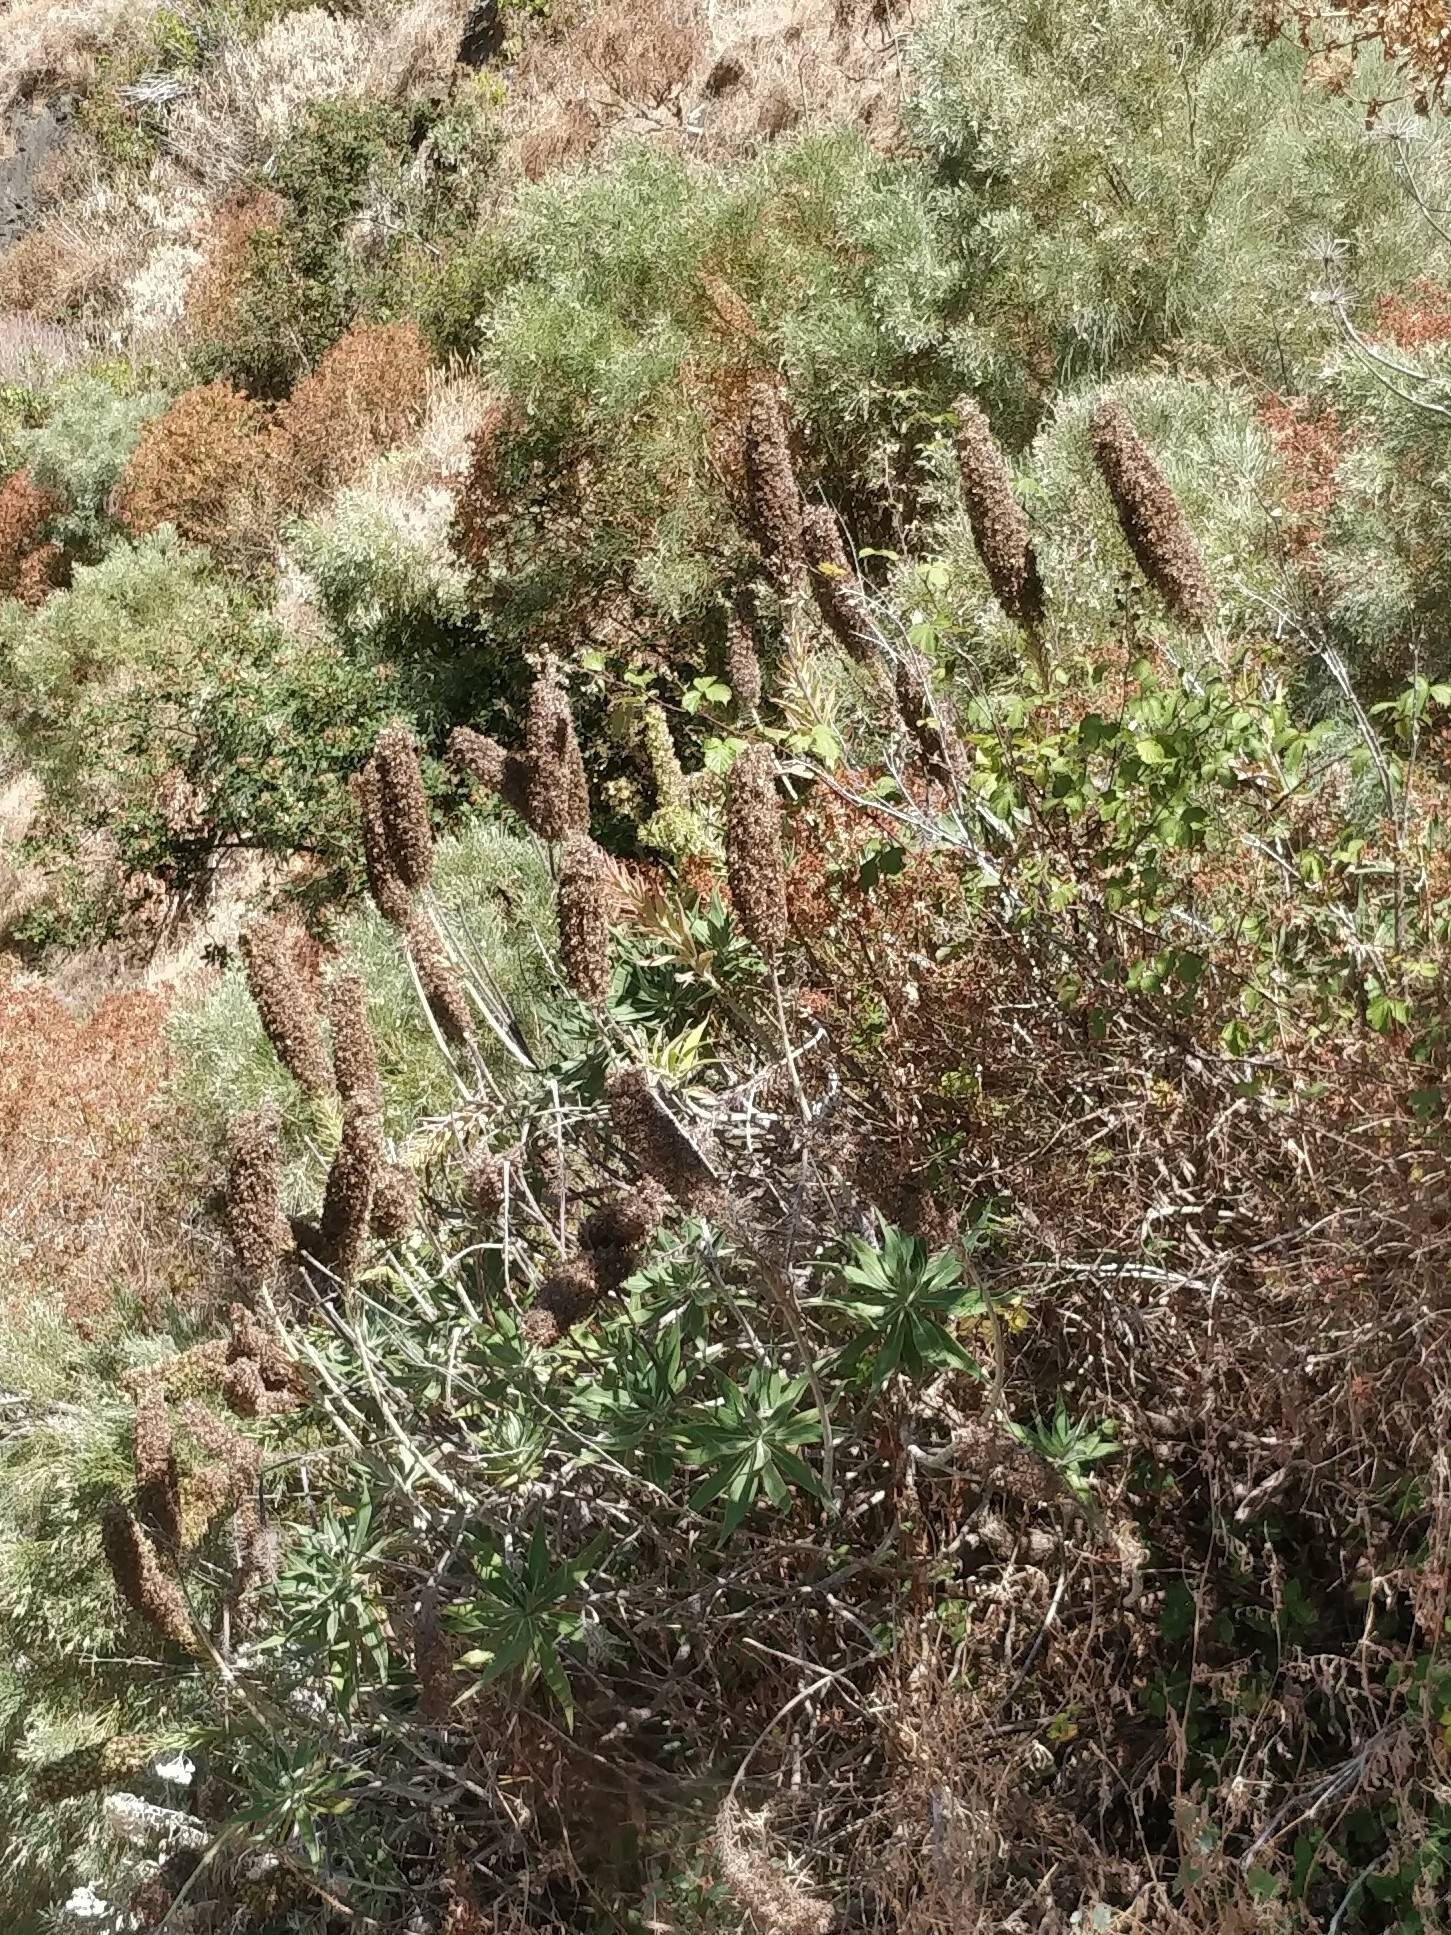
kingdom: Plantae
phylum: Tracheophyta
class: Magnoliopsida
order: Boraginales
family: Boraginaceae
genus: Echium
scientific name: Echium candicans
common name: Pride of madeira
